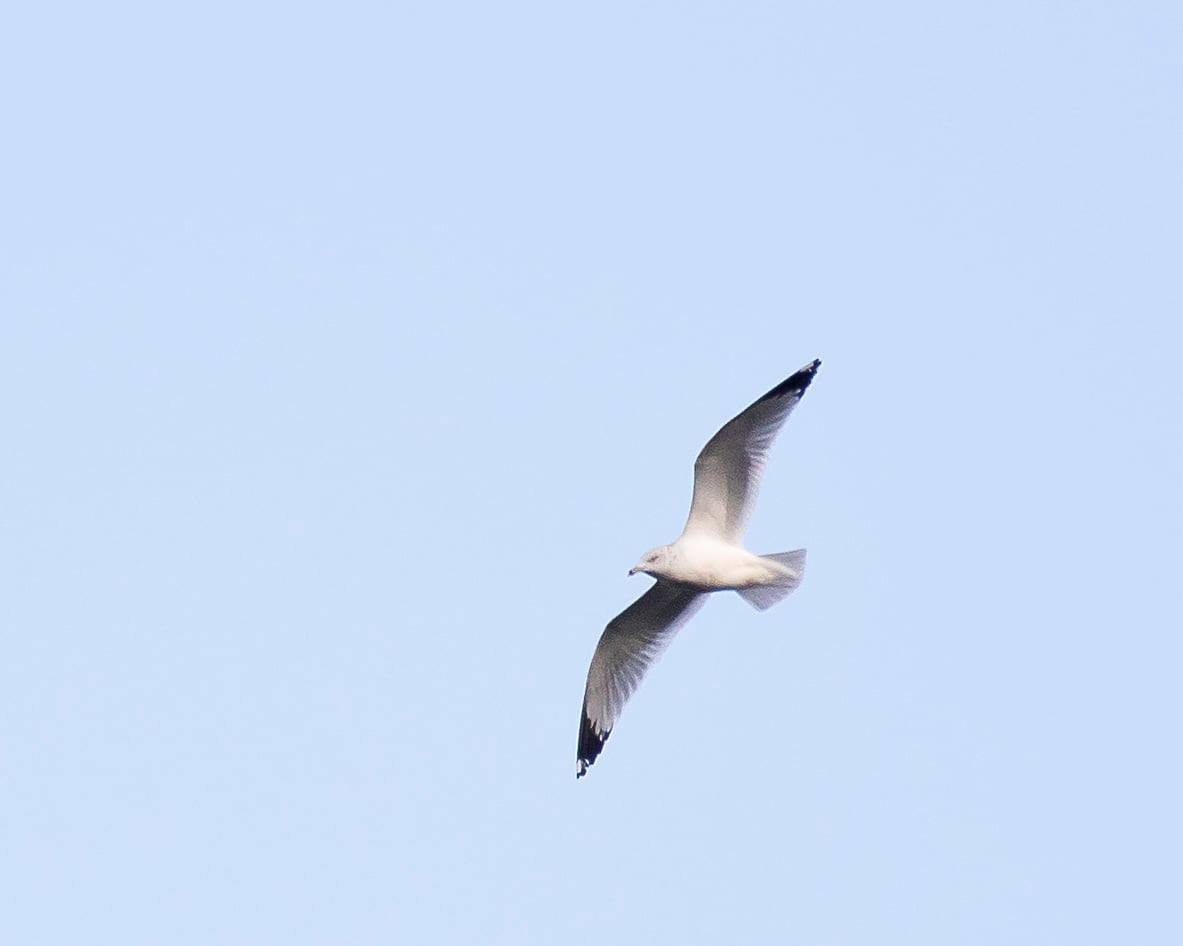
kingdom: Animalia
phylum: Chordata
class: Aves
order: Charadriiformes
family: Laridae
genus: Larus
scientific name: Larus delawarensis
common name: Ring-billed gull
